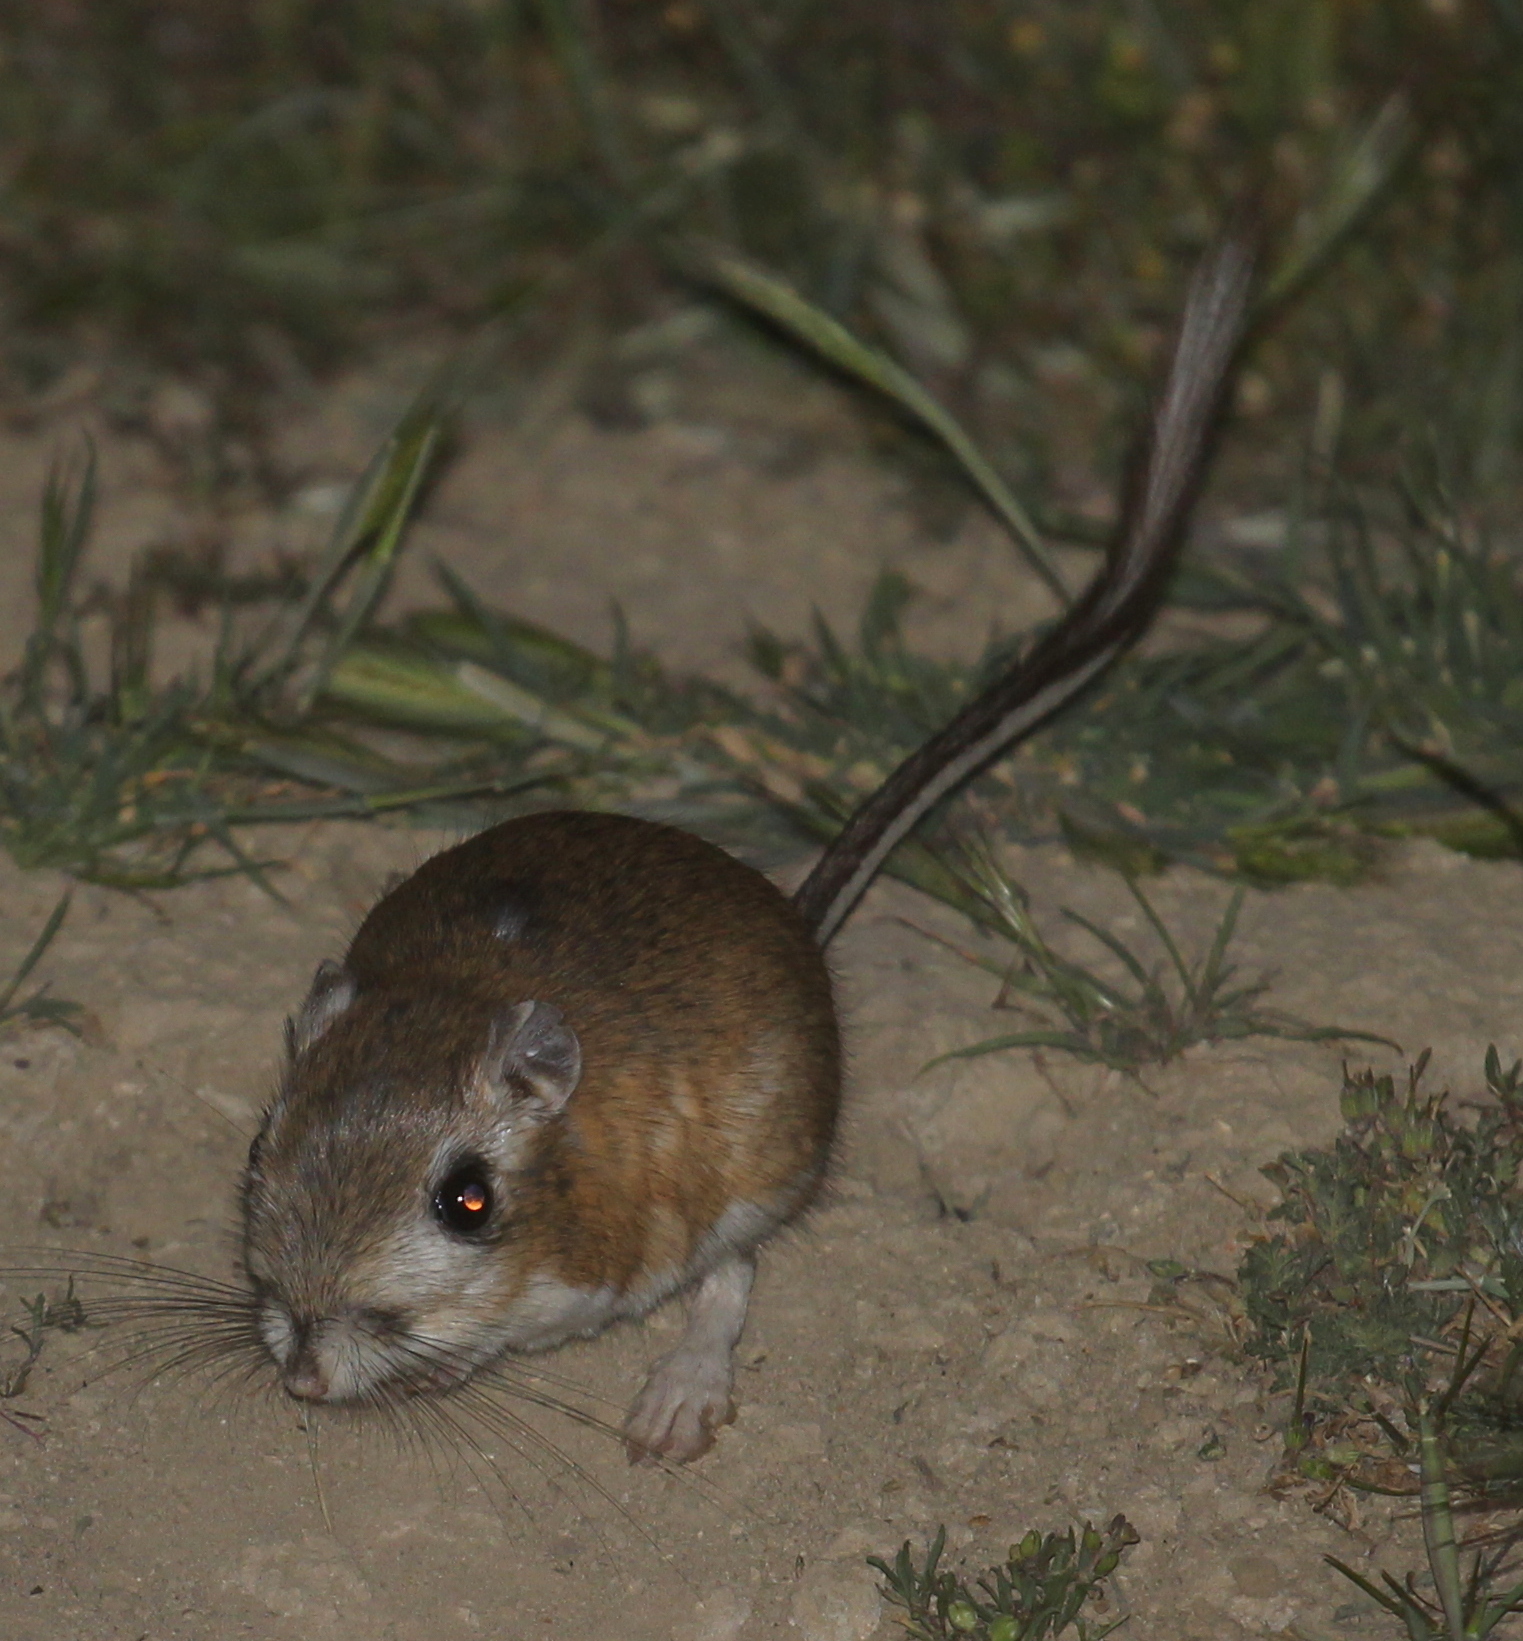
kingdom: Animalia
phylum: Chordata
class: Mammalia
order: Rodentia
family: Heteromyidae
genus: Dipodomys
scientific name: Dipodomys ingens
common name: Giant kangaroo rat
